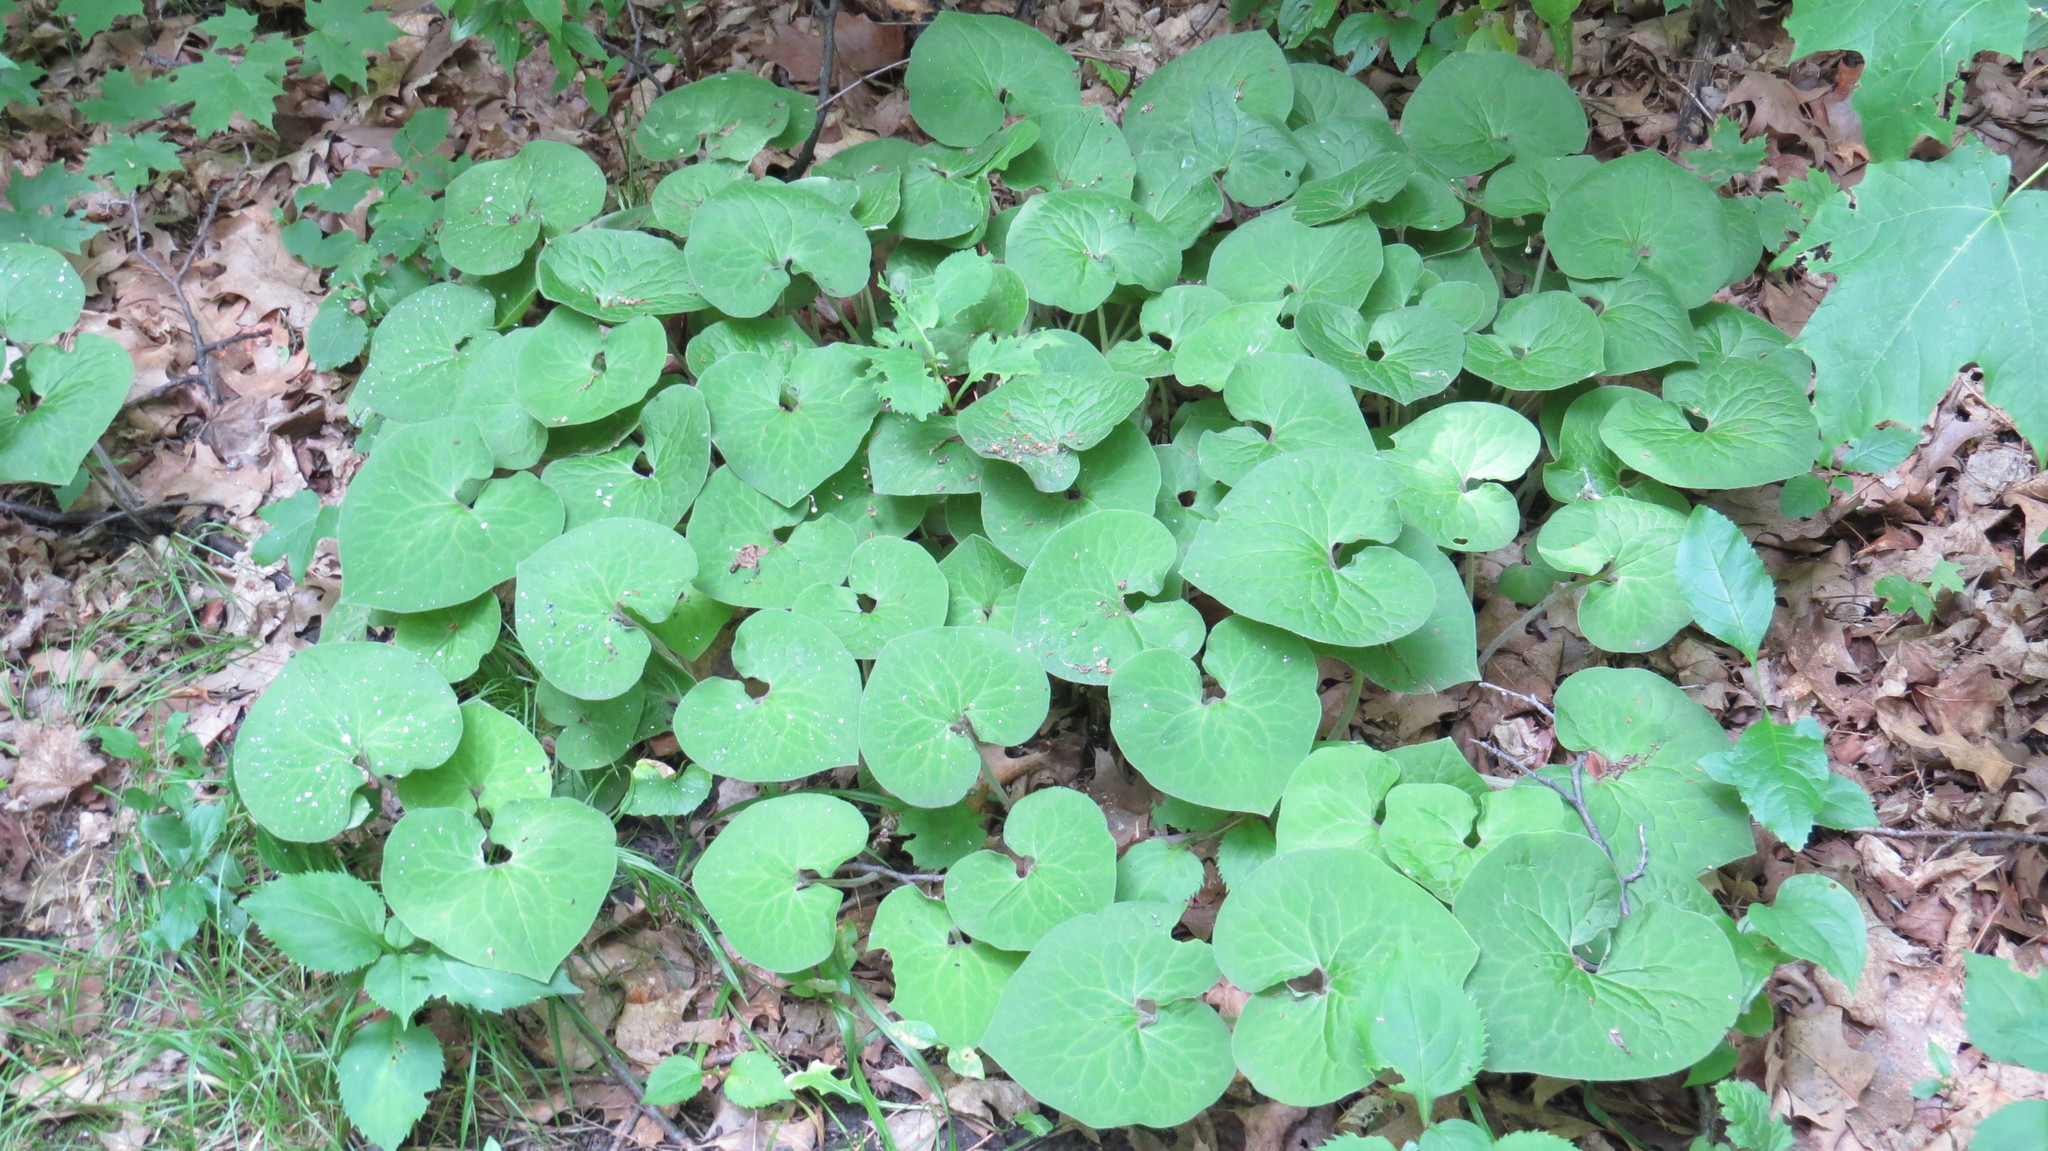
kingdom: Plantae
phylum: Tracheophyta
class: Magnoliopsida
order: Piperales
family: Aristolochiaceae
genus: Asarum
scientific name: Asarum canadense
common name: Wild ginger
